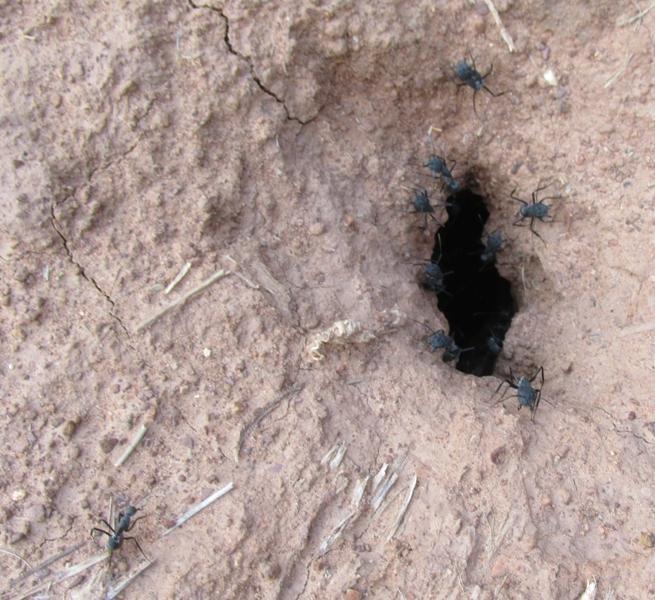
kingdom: Animalia
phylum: Arthropoda
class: Insecta
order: Hymenoptera
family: Formicidae
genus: Camponotus
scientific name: Camponotus petersii
